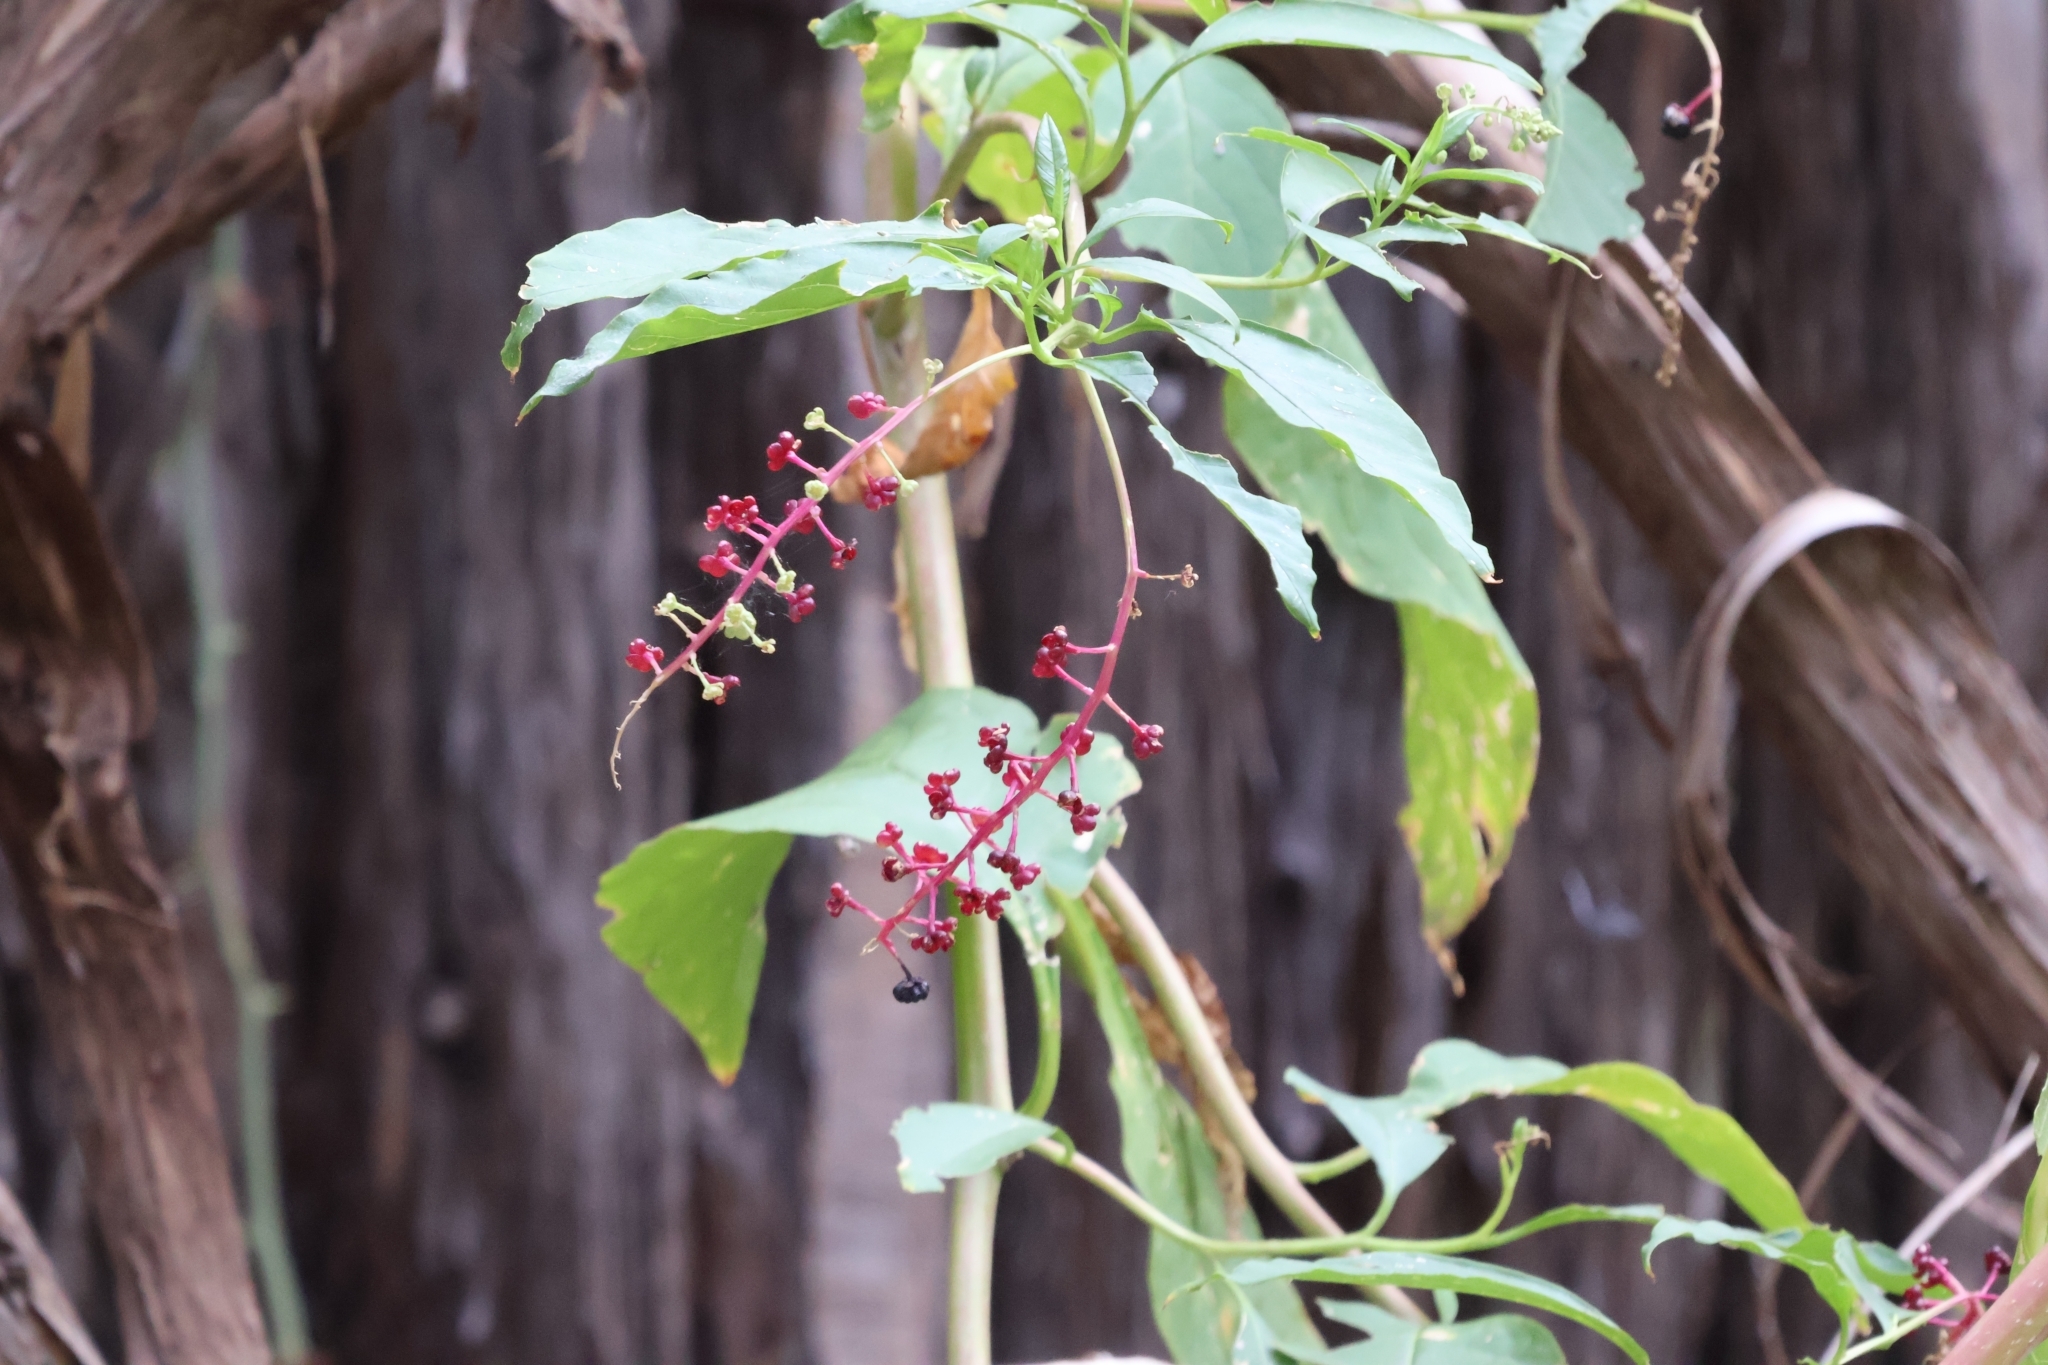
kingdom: Plantae
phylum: Tracheophyta
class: Magnoliopsida
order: Caryophyllales
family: Phytolaccaceae
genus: Phytolacca
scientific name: Phytolacca americana
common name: American pokeweed
